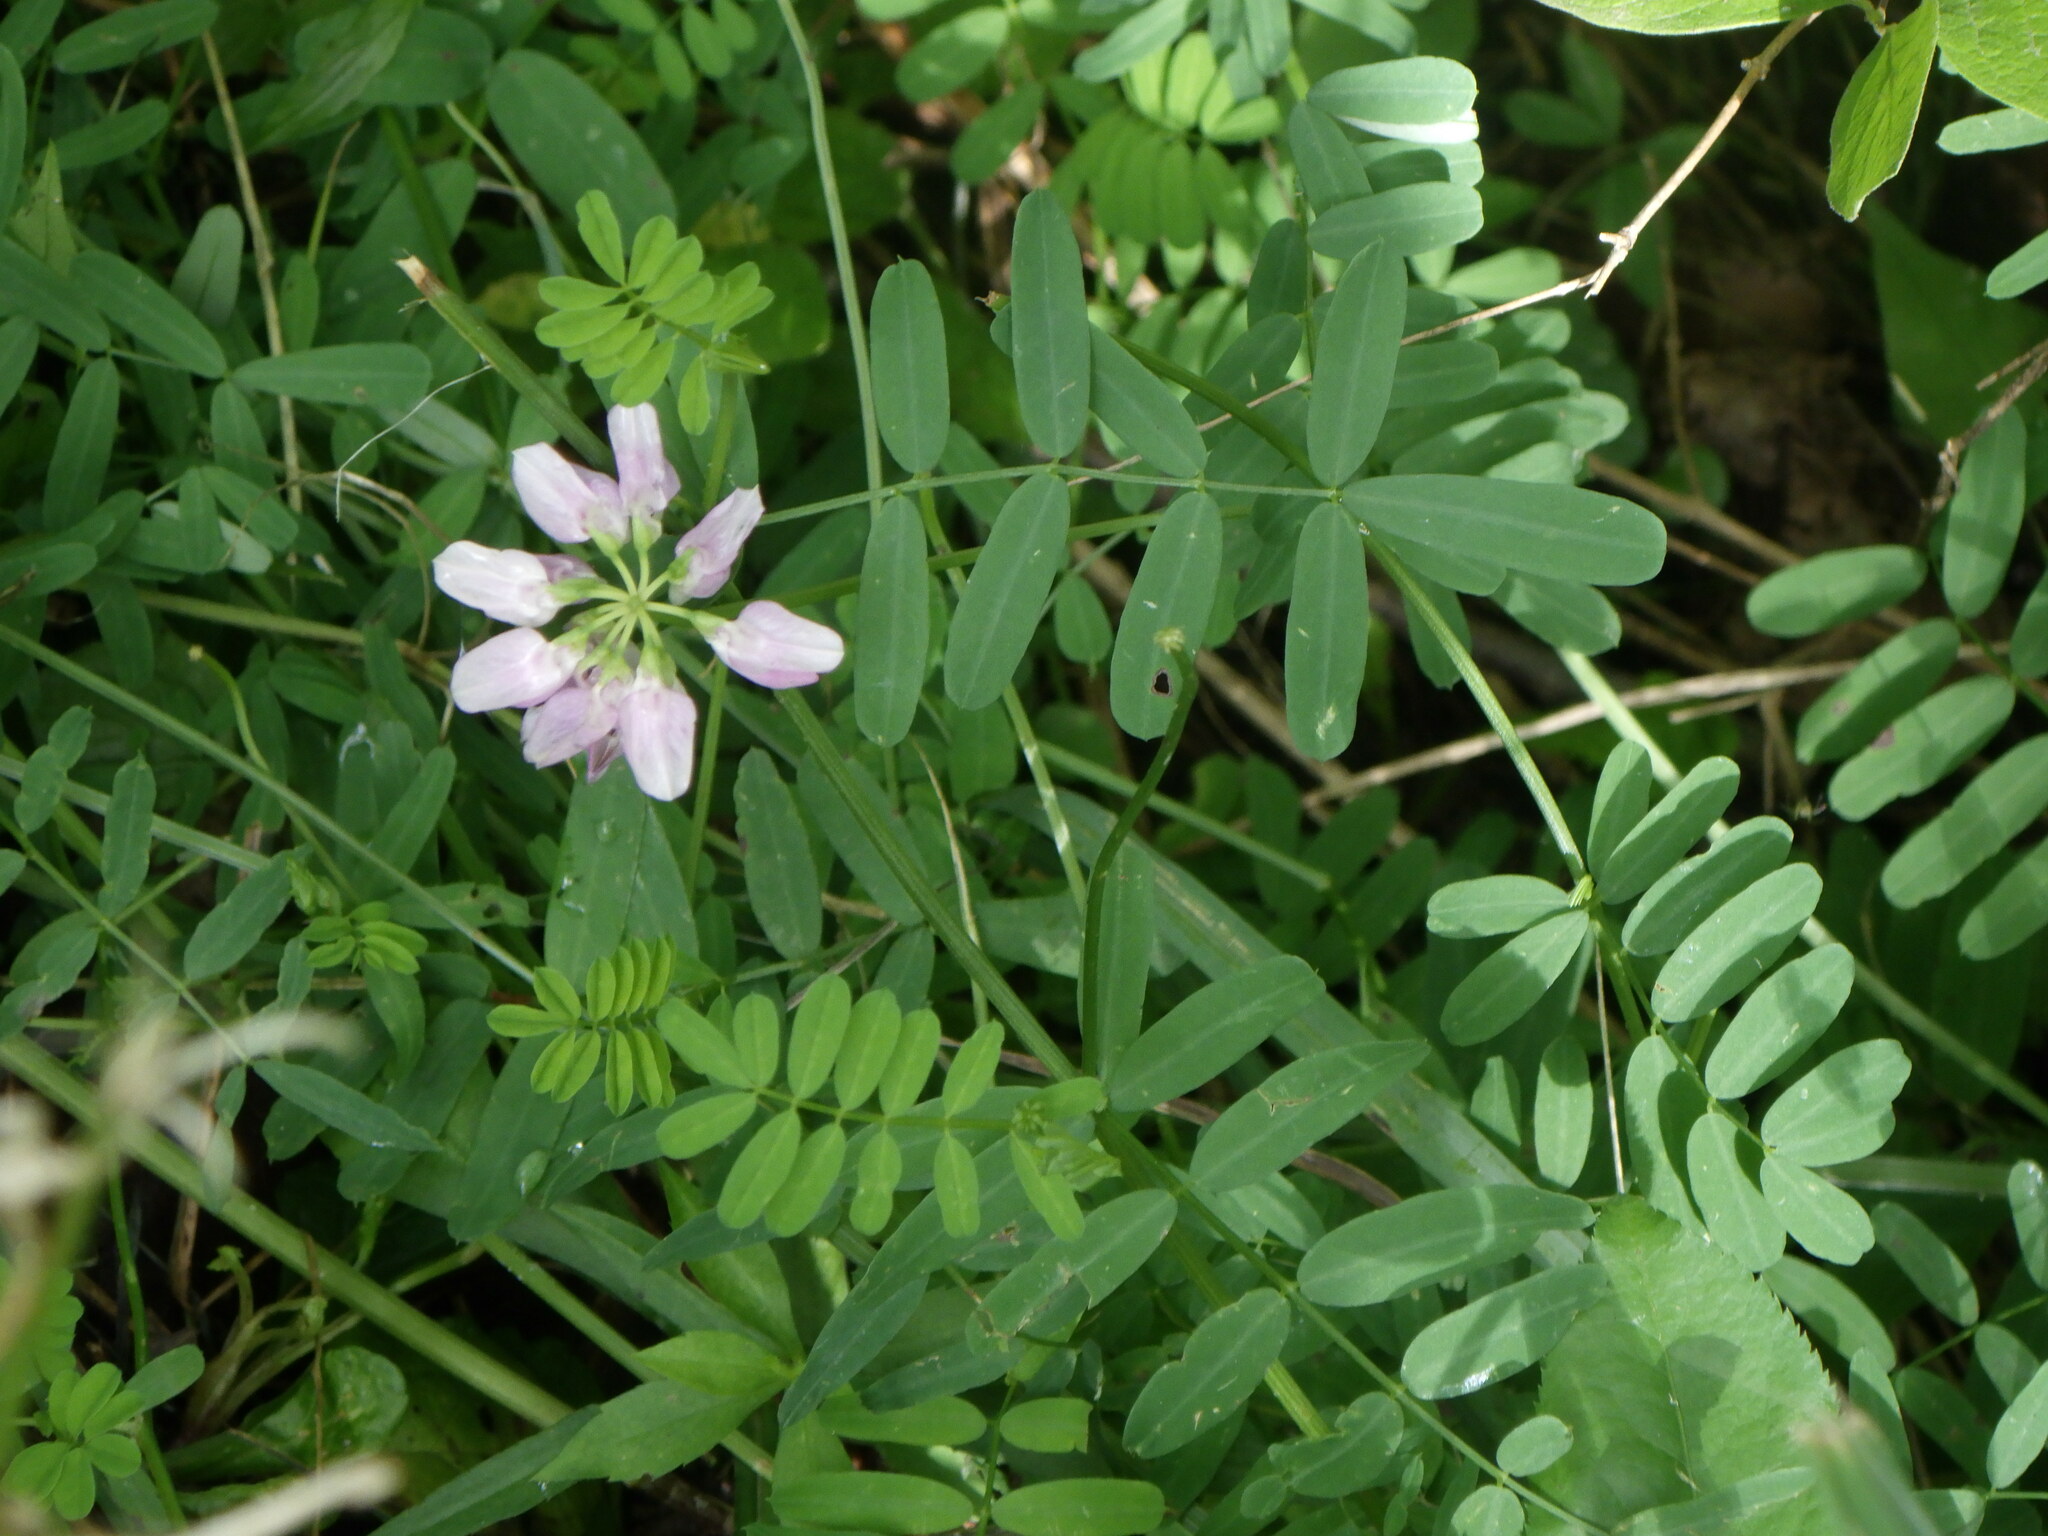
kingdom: Plantae
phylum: Tracheophyta
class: Magnoliopsida
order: Fabales
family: Fabaceae
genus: Coronilla
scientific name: Coronilla varia
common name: Crownvetch
